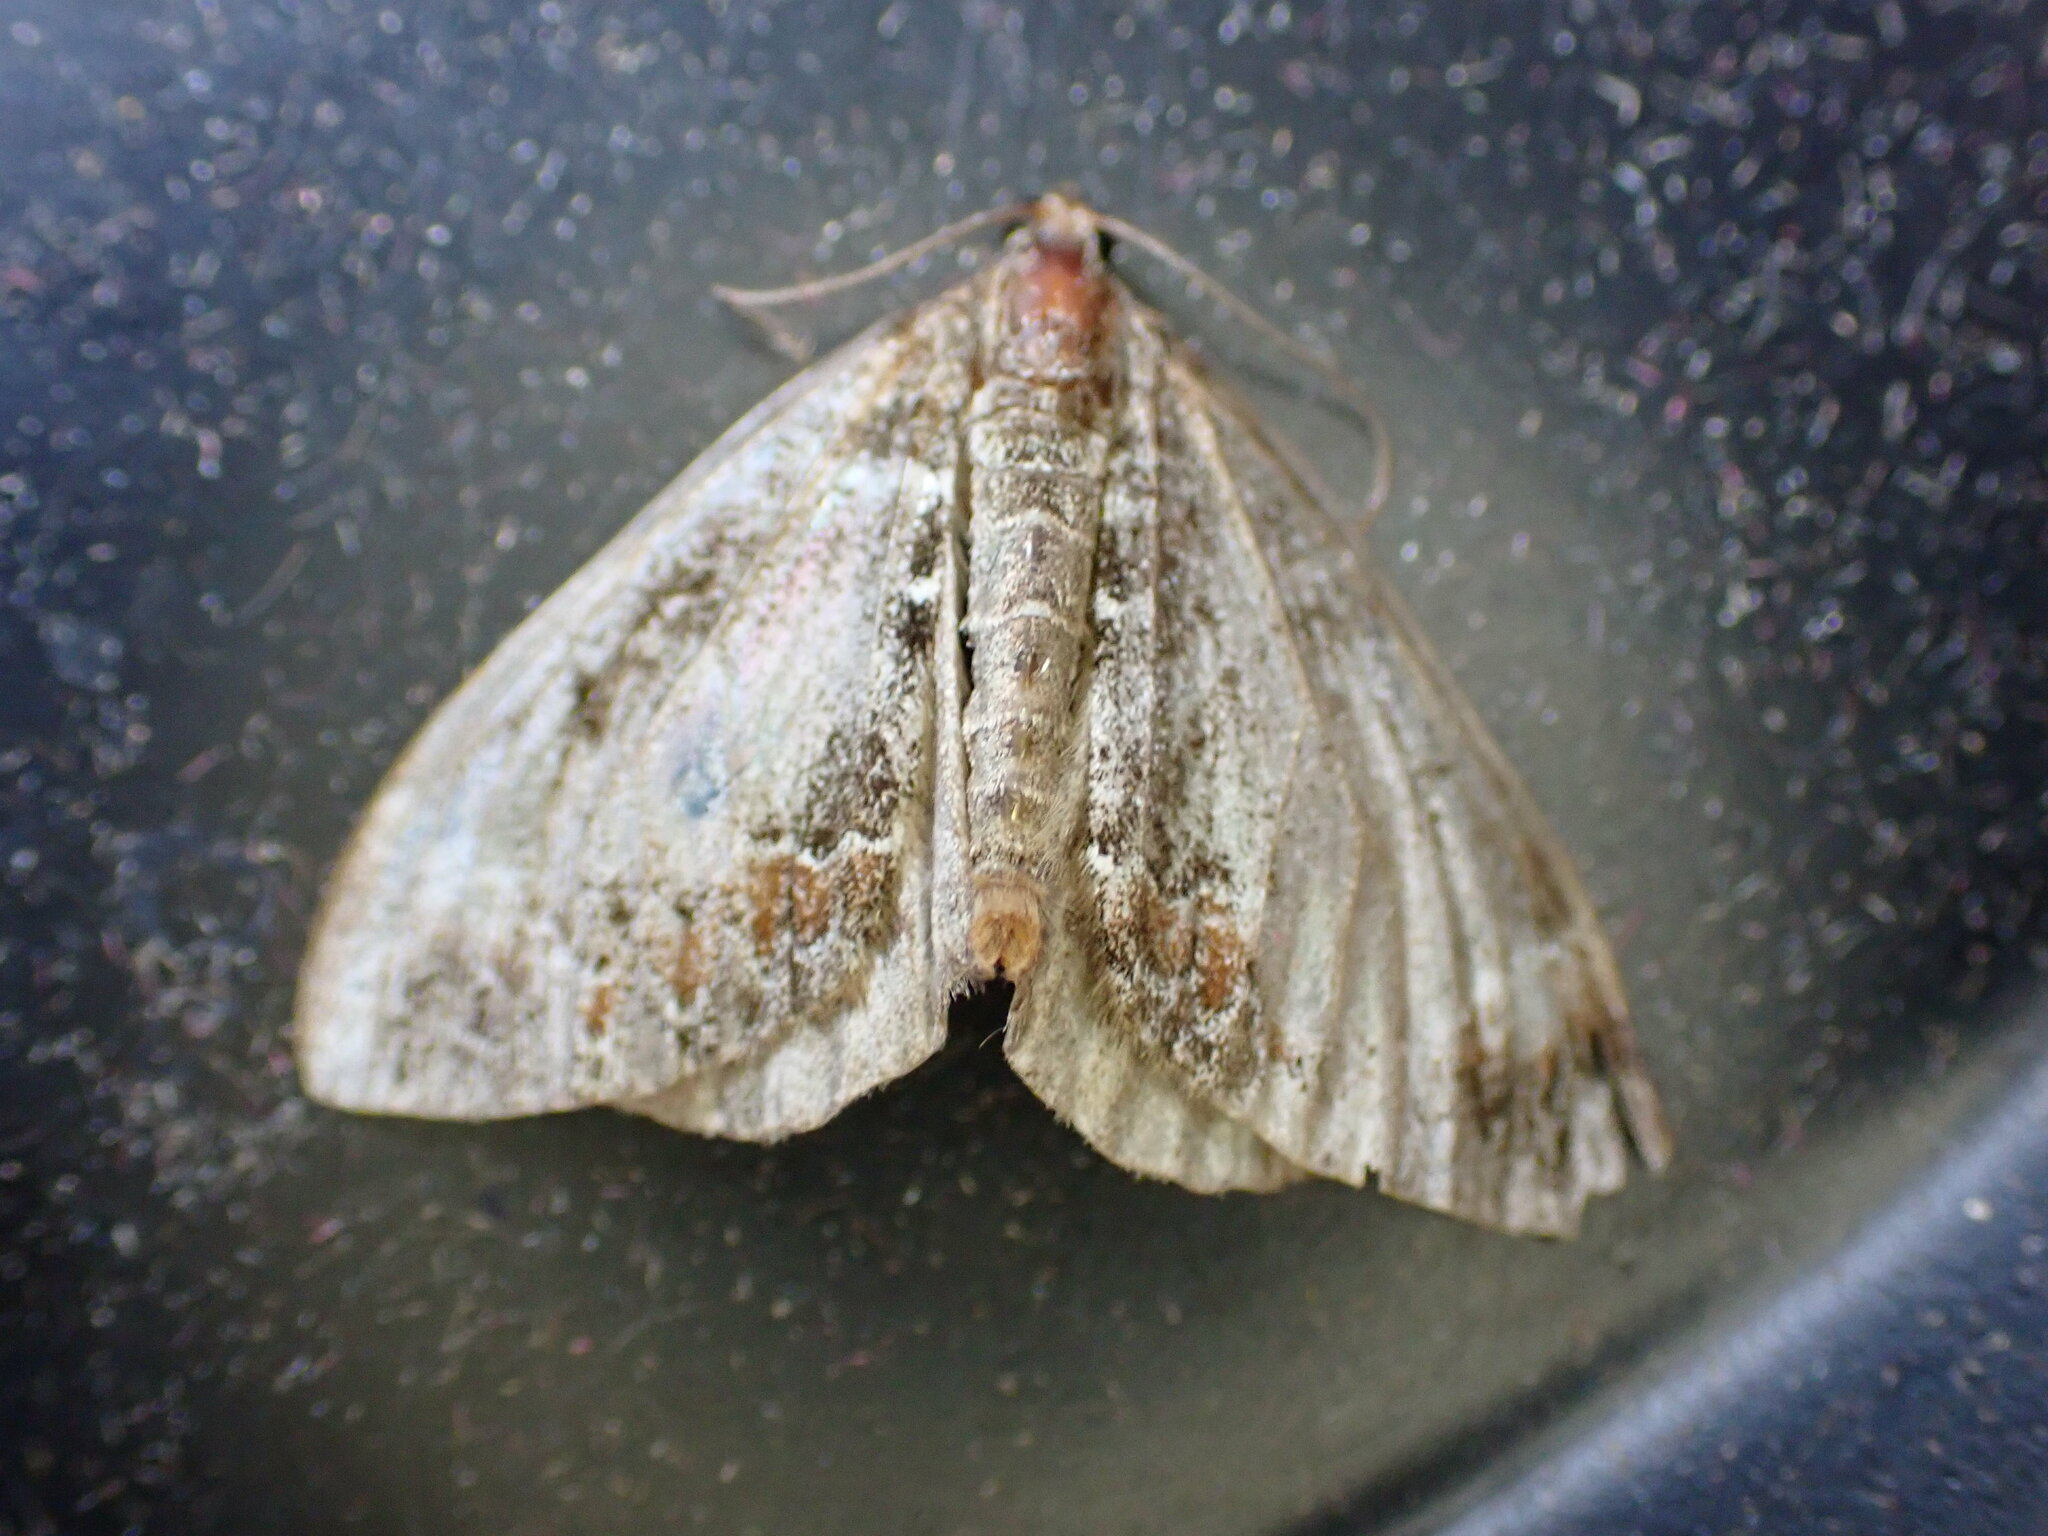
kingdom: Animalia
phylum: Arthropoda
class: Insecta
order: Lepidoptera
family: Geometridae
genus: Dysstroma
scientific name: Dysstroma truncata
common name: Common marbled carpet
